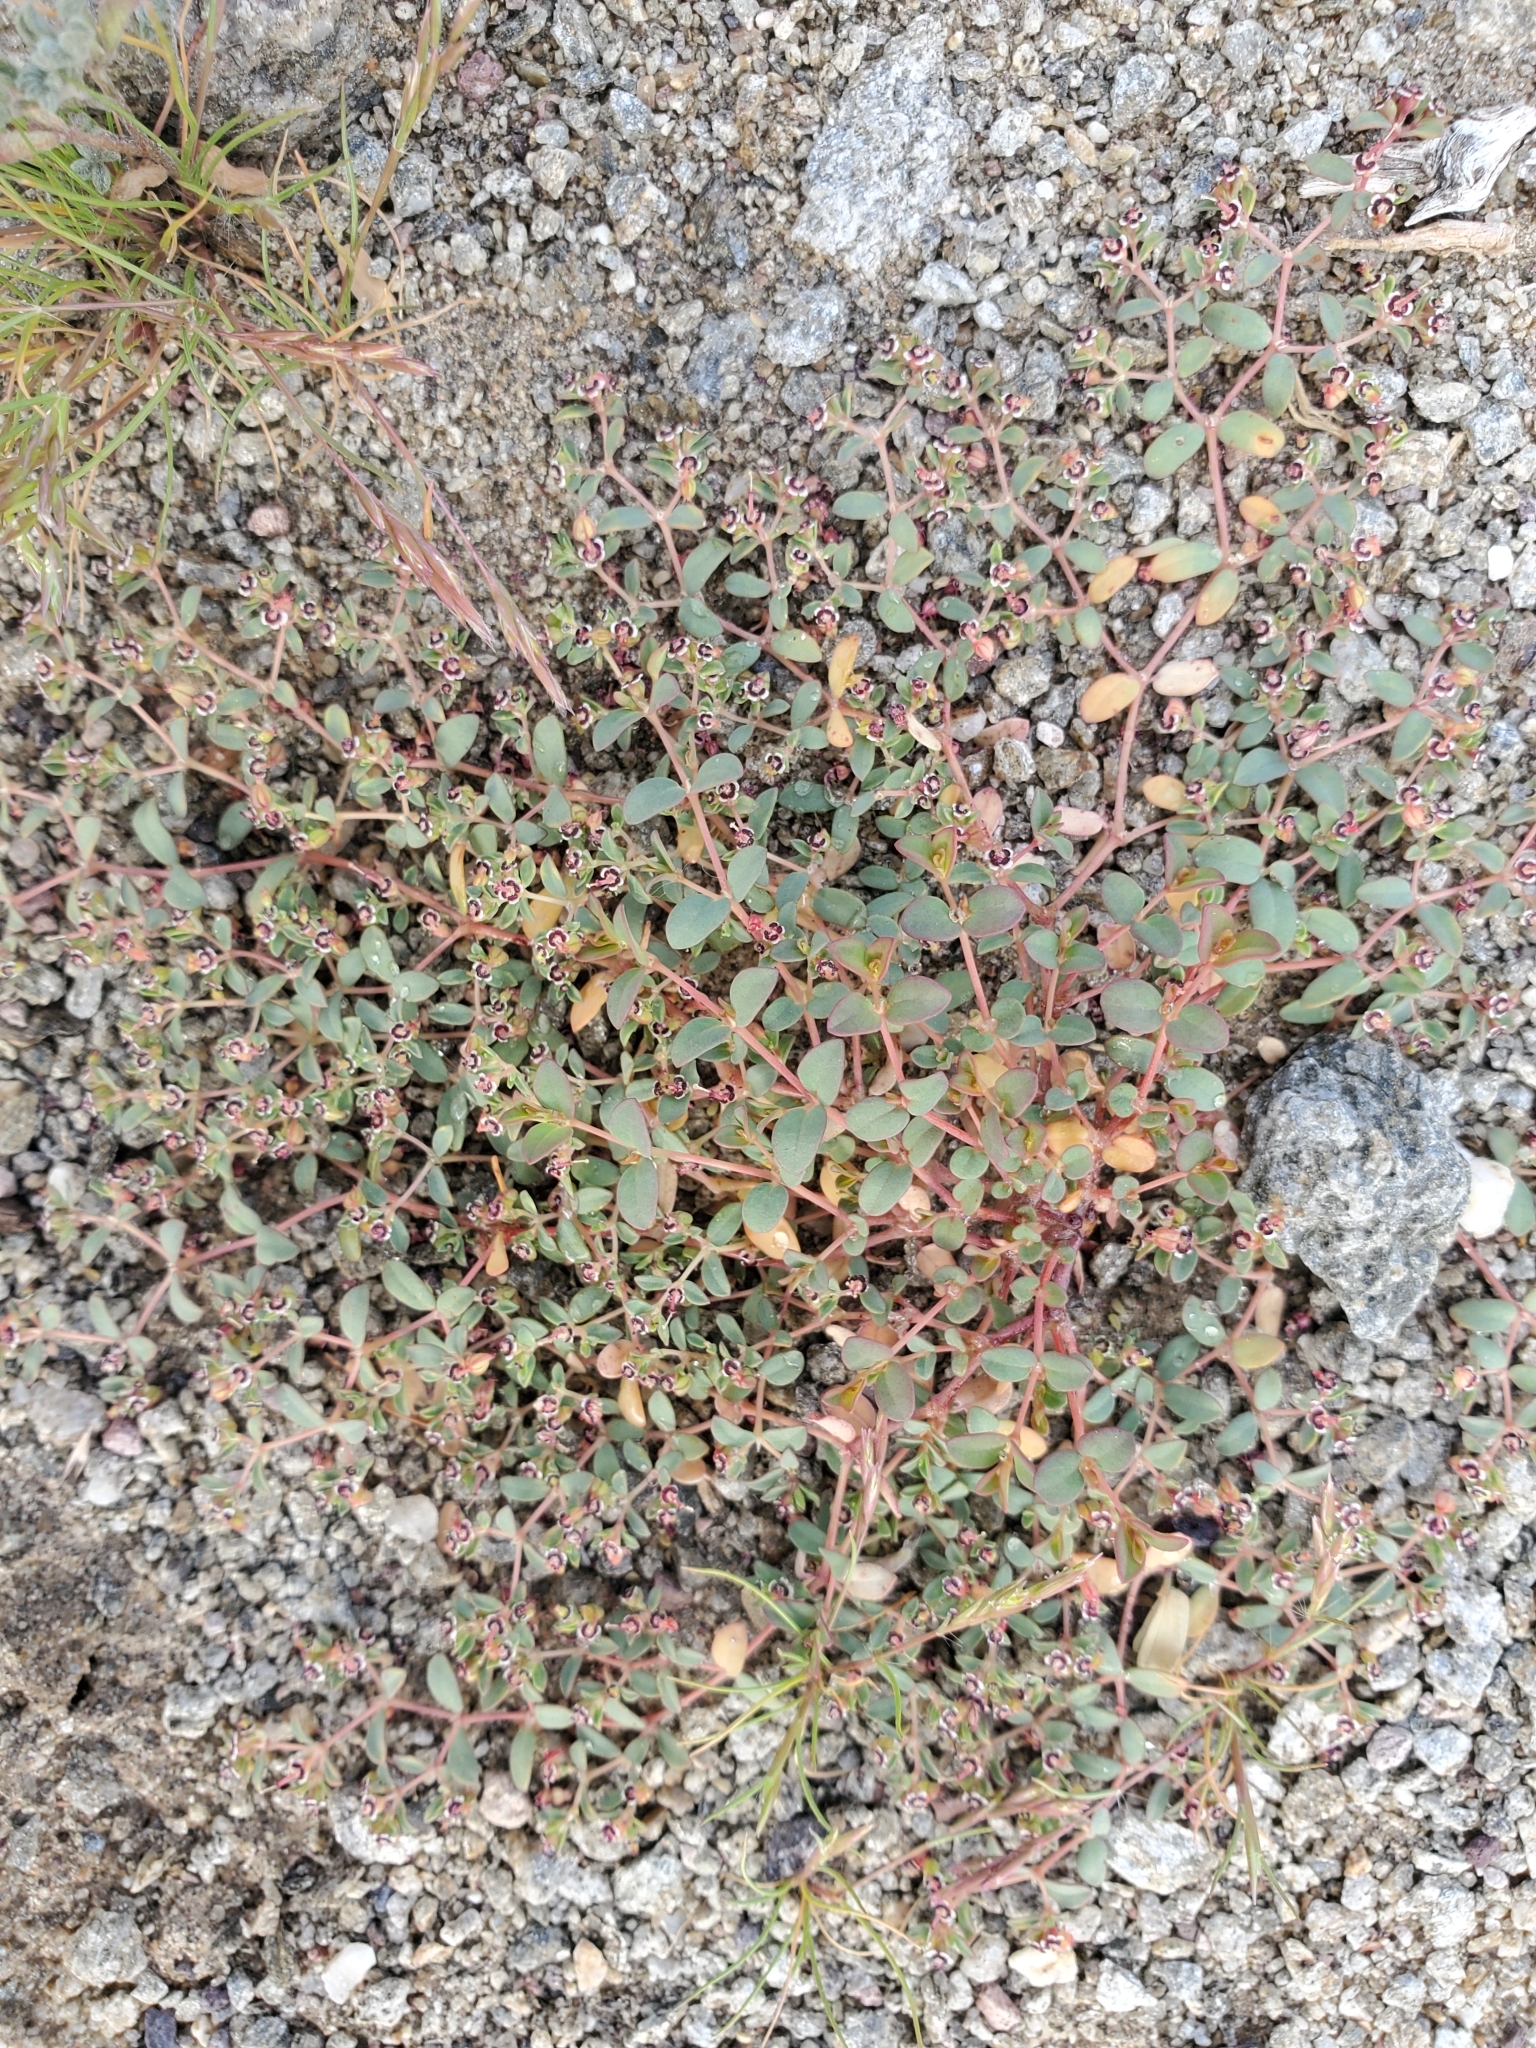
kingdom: Plantae
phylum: Tracheophyta
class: Magnoliopsida
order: Malpighiales
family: Euphorbiaceae
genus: Euphorbia
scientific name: Euphorbia polycarpa
